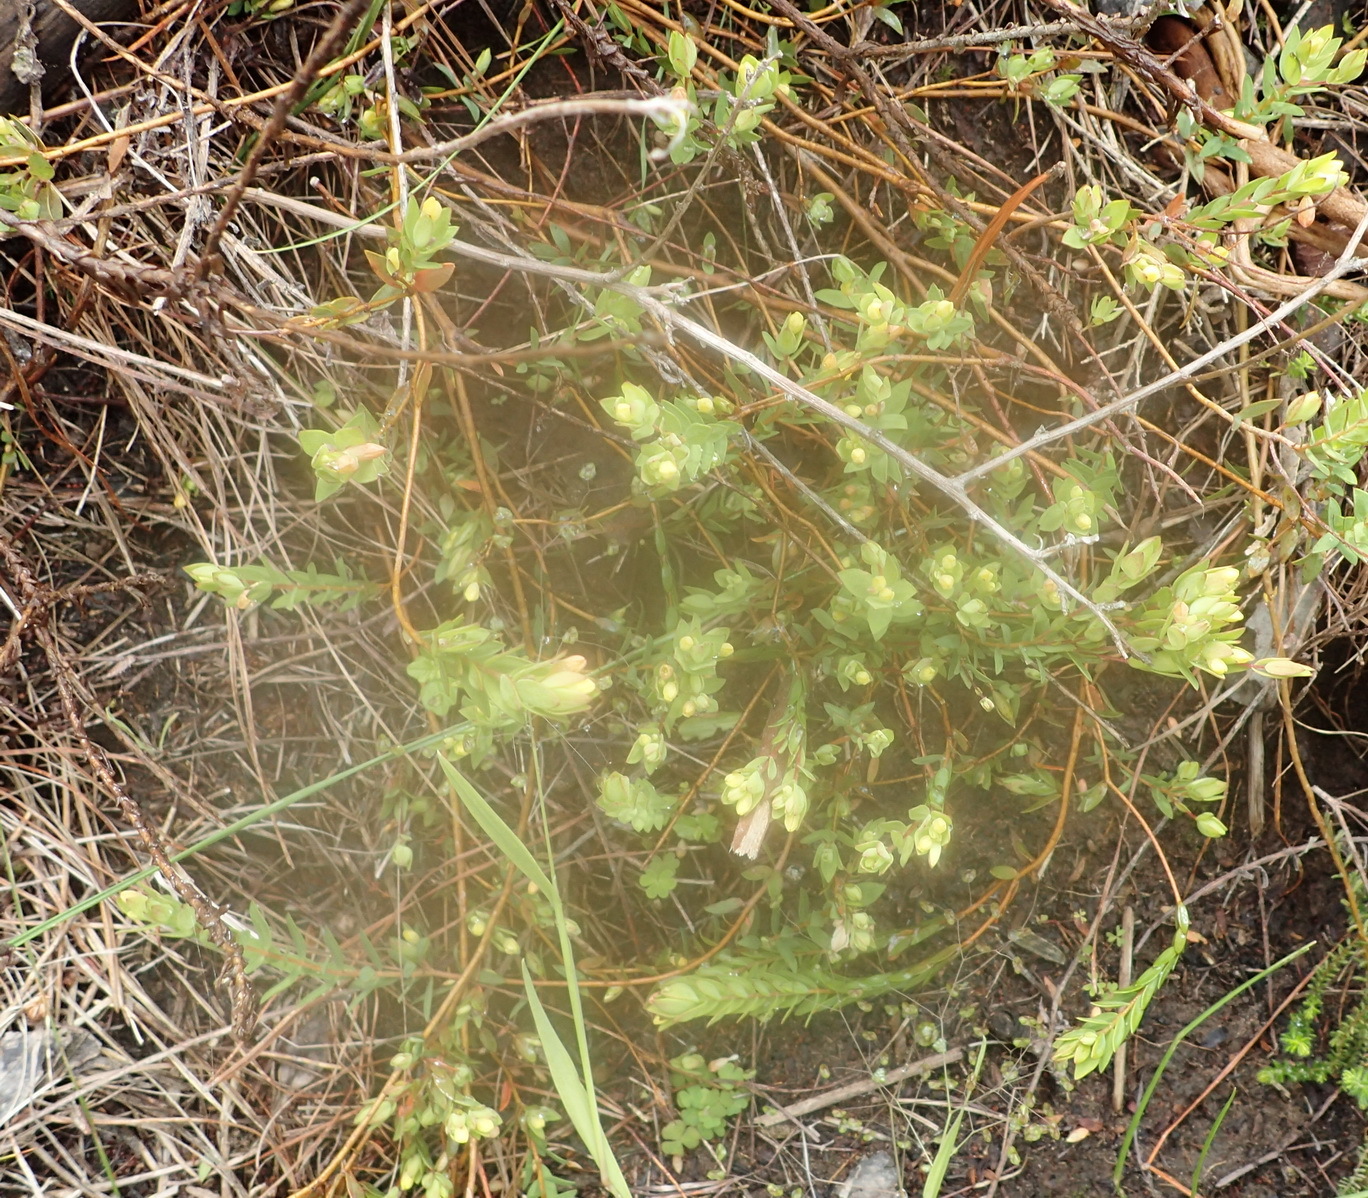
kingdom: Plantae
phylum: Tracheophyta
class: Magnoliopsida
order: Malvales
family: Thymelaeaceae
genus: Gnidia
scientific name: Gnidia juniperifolia
